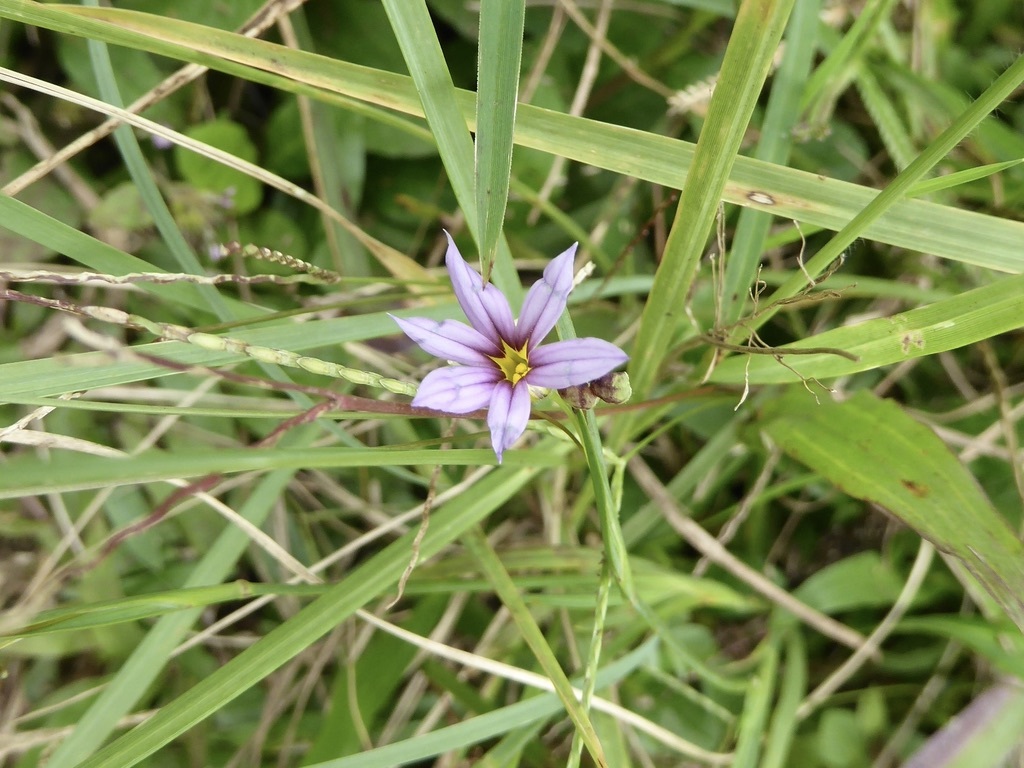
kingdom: Plantae
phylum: Tracheophyta
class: Liliopsida
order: Asparagales
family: Iridaceae
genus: Sisyrinchium
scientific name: Sisyrinchium micranthum
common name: Bermuda pigroot
